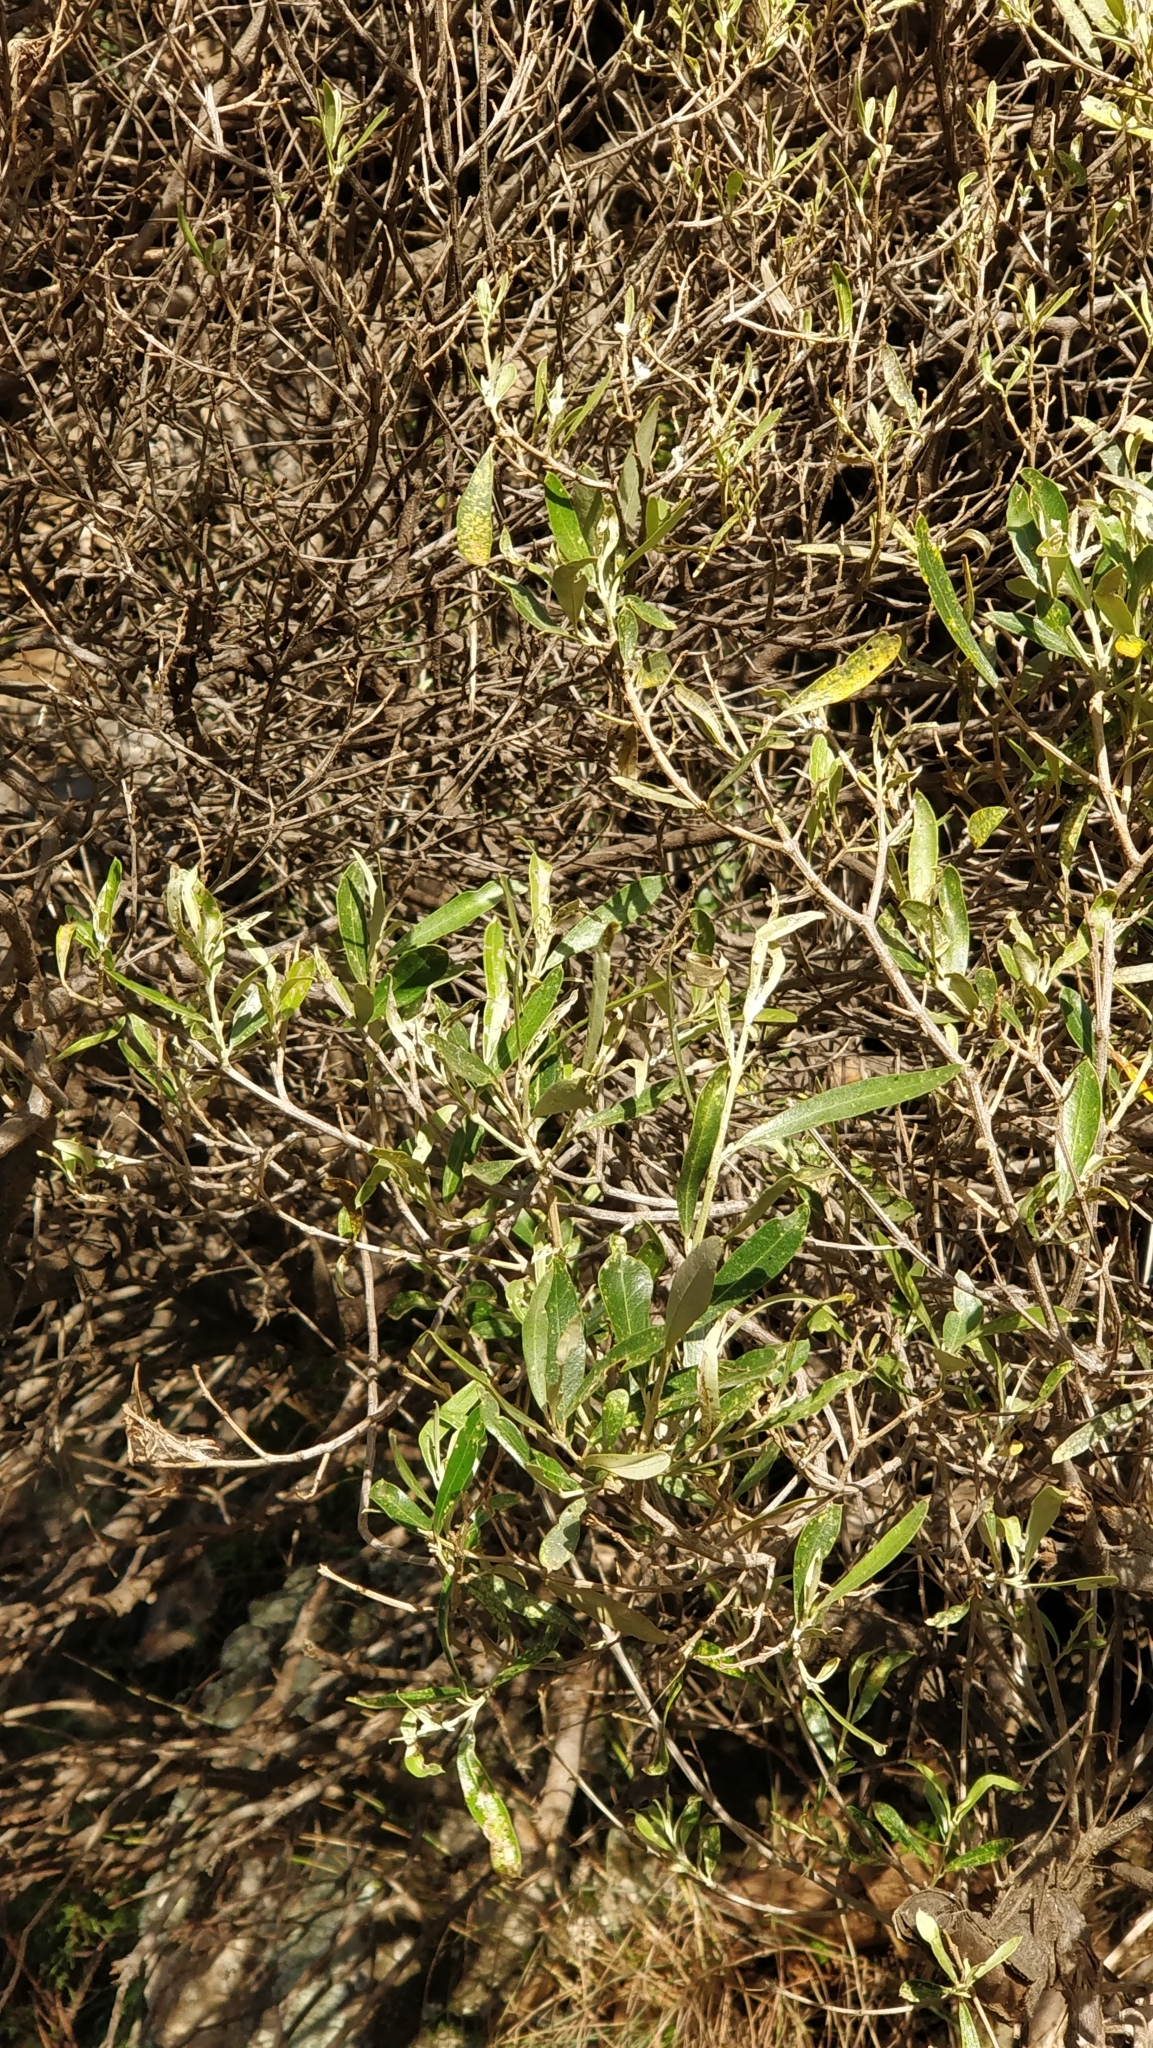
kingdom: Plantae
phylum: Tracheophyta
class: Magnoliopsida
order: Lamiales
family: Oleaceae
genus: Olea
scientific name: Olea europaea
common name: Olive
